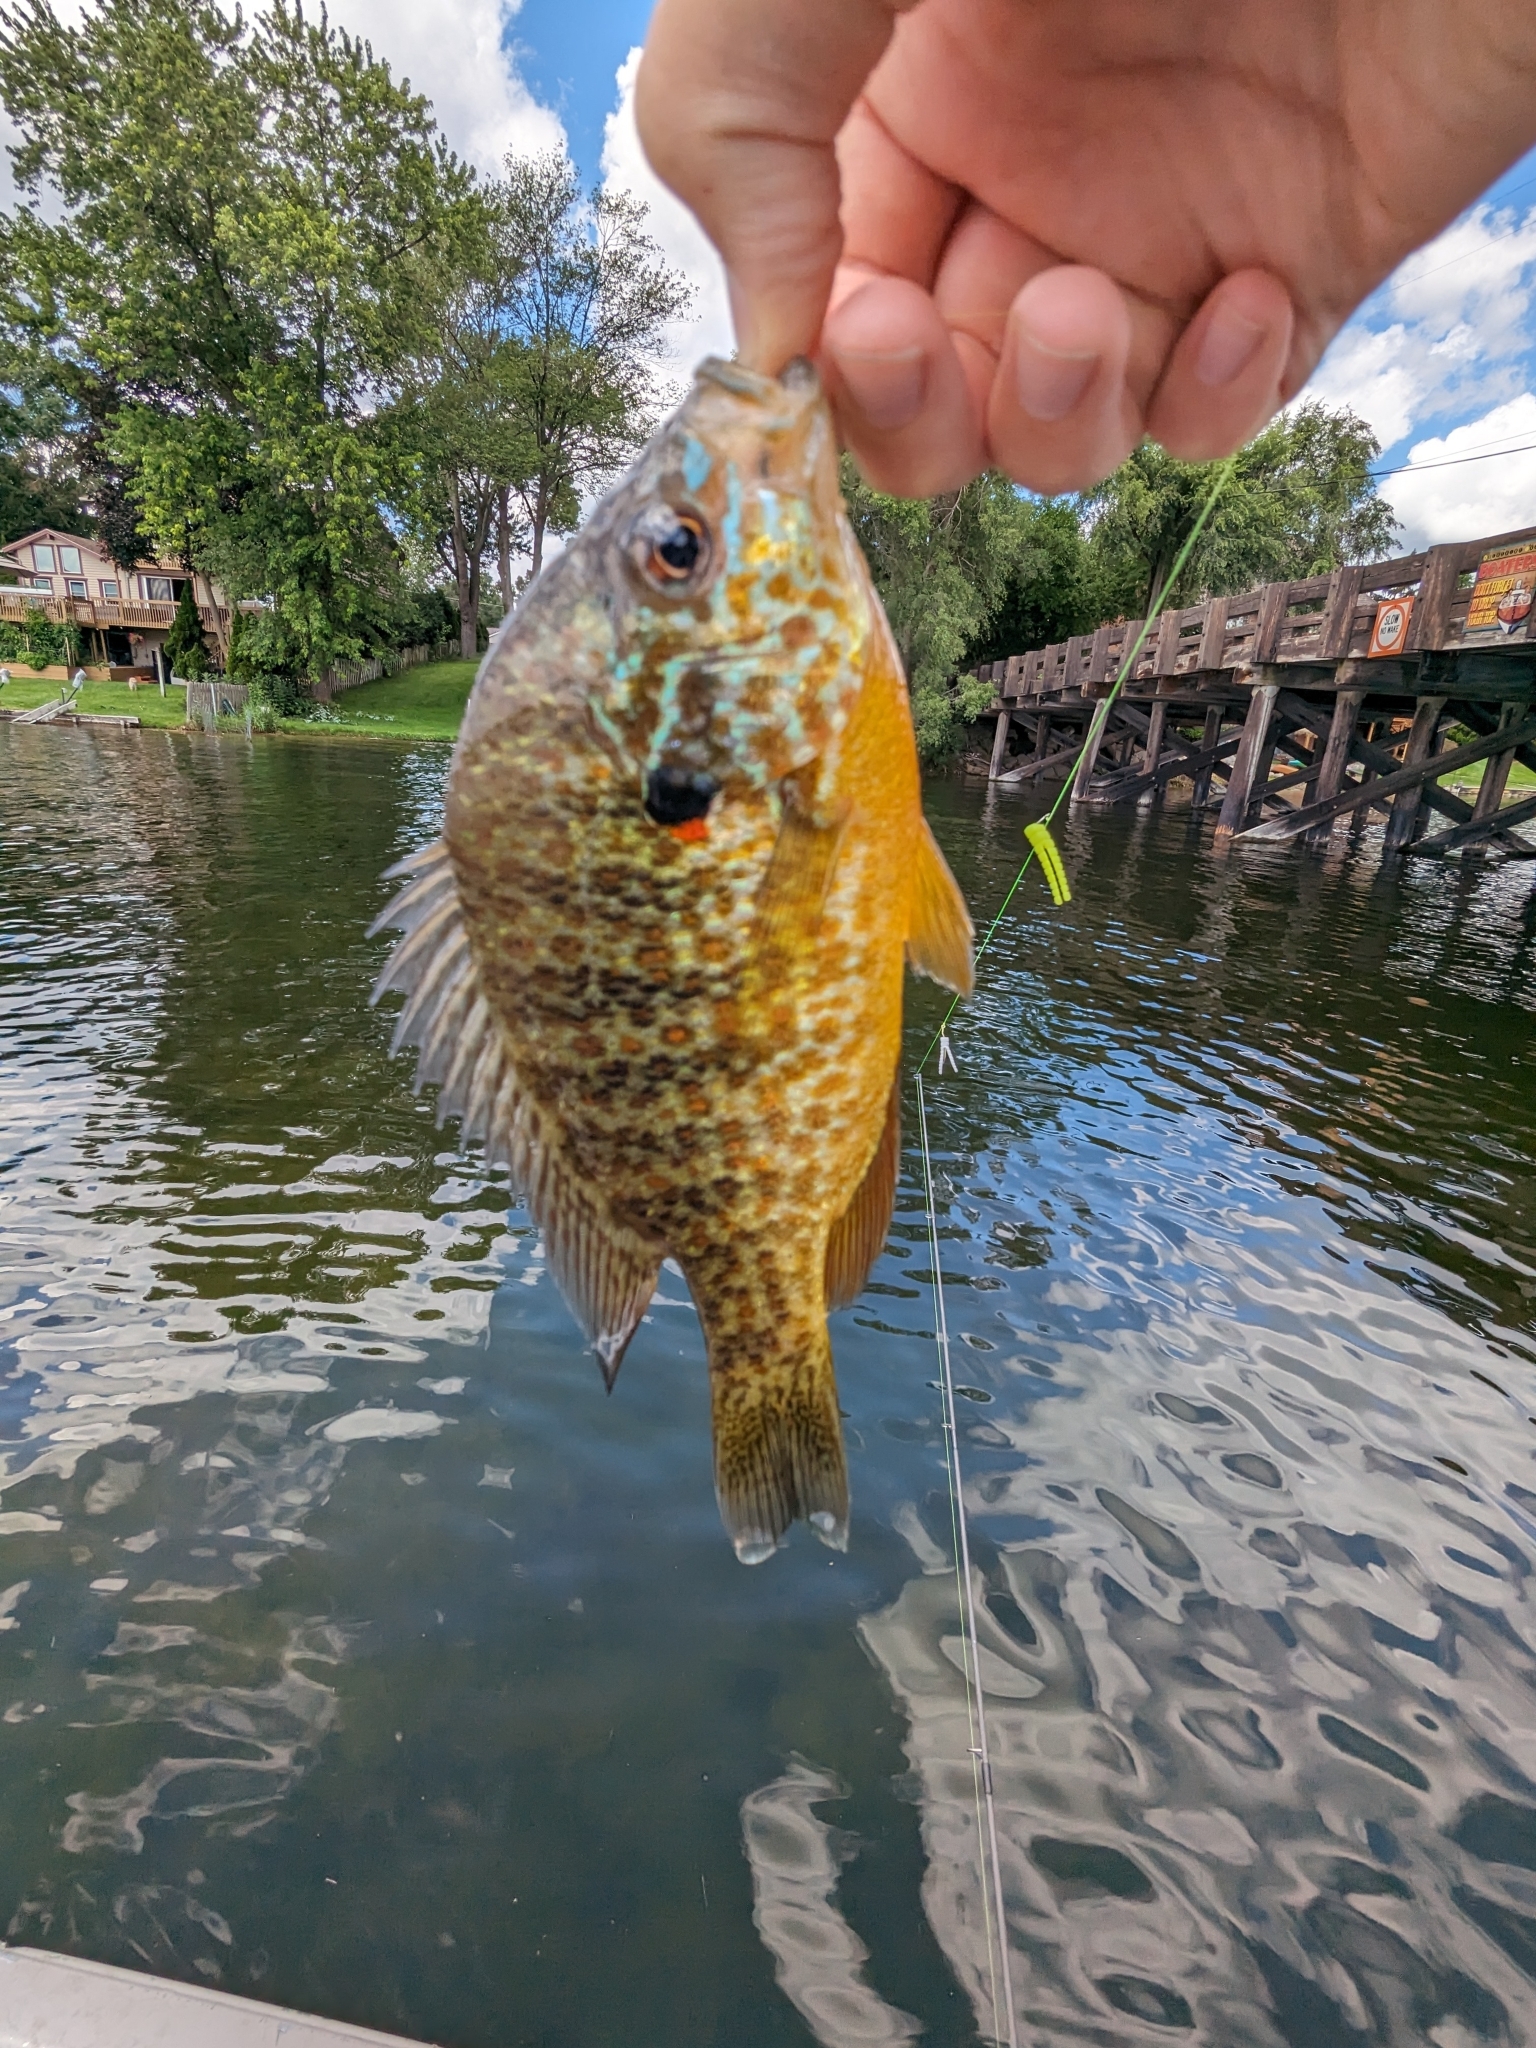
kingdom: Animalia
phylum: Chordata
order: Perciformes
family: Centrarchidae
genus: Lepomis
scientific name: Lepomis gibbosus
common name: Pumpkinseed
